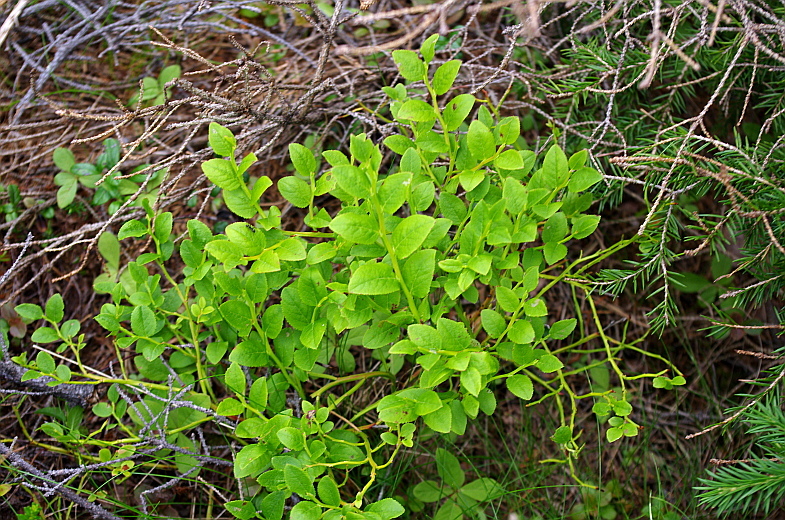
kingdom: Plantae
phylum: Tracheophyta
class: Magnoliopsida
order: Ericales
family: Ericaceae
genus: Vaccinium
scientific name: Vaccinium myrtillus
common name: Bilberry
